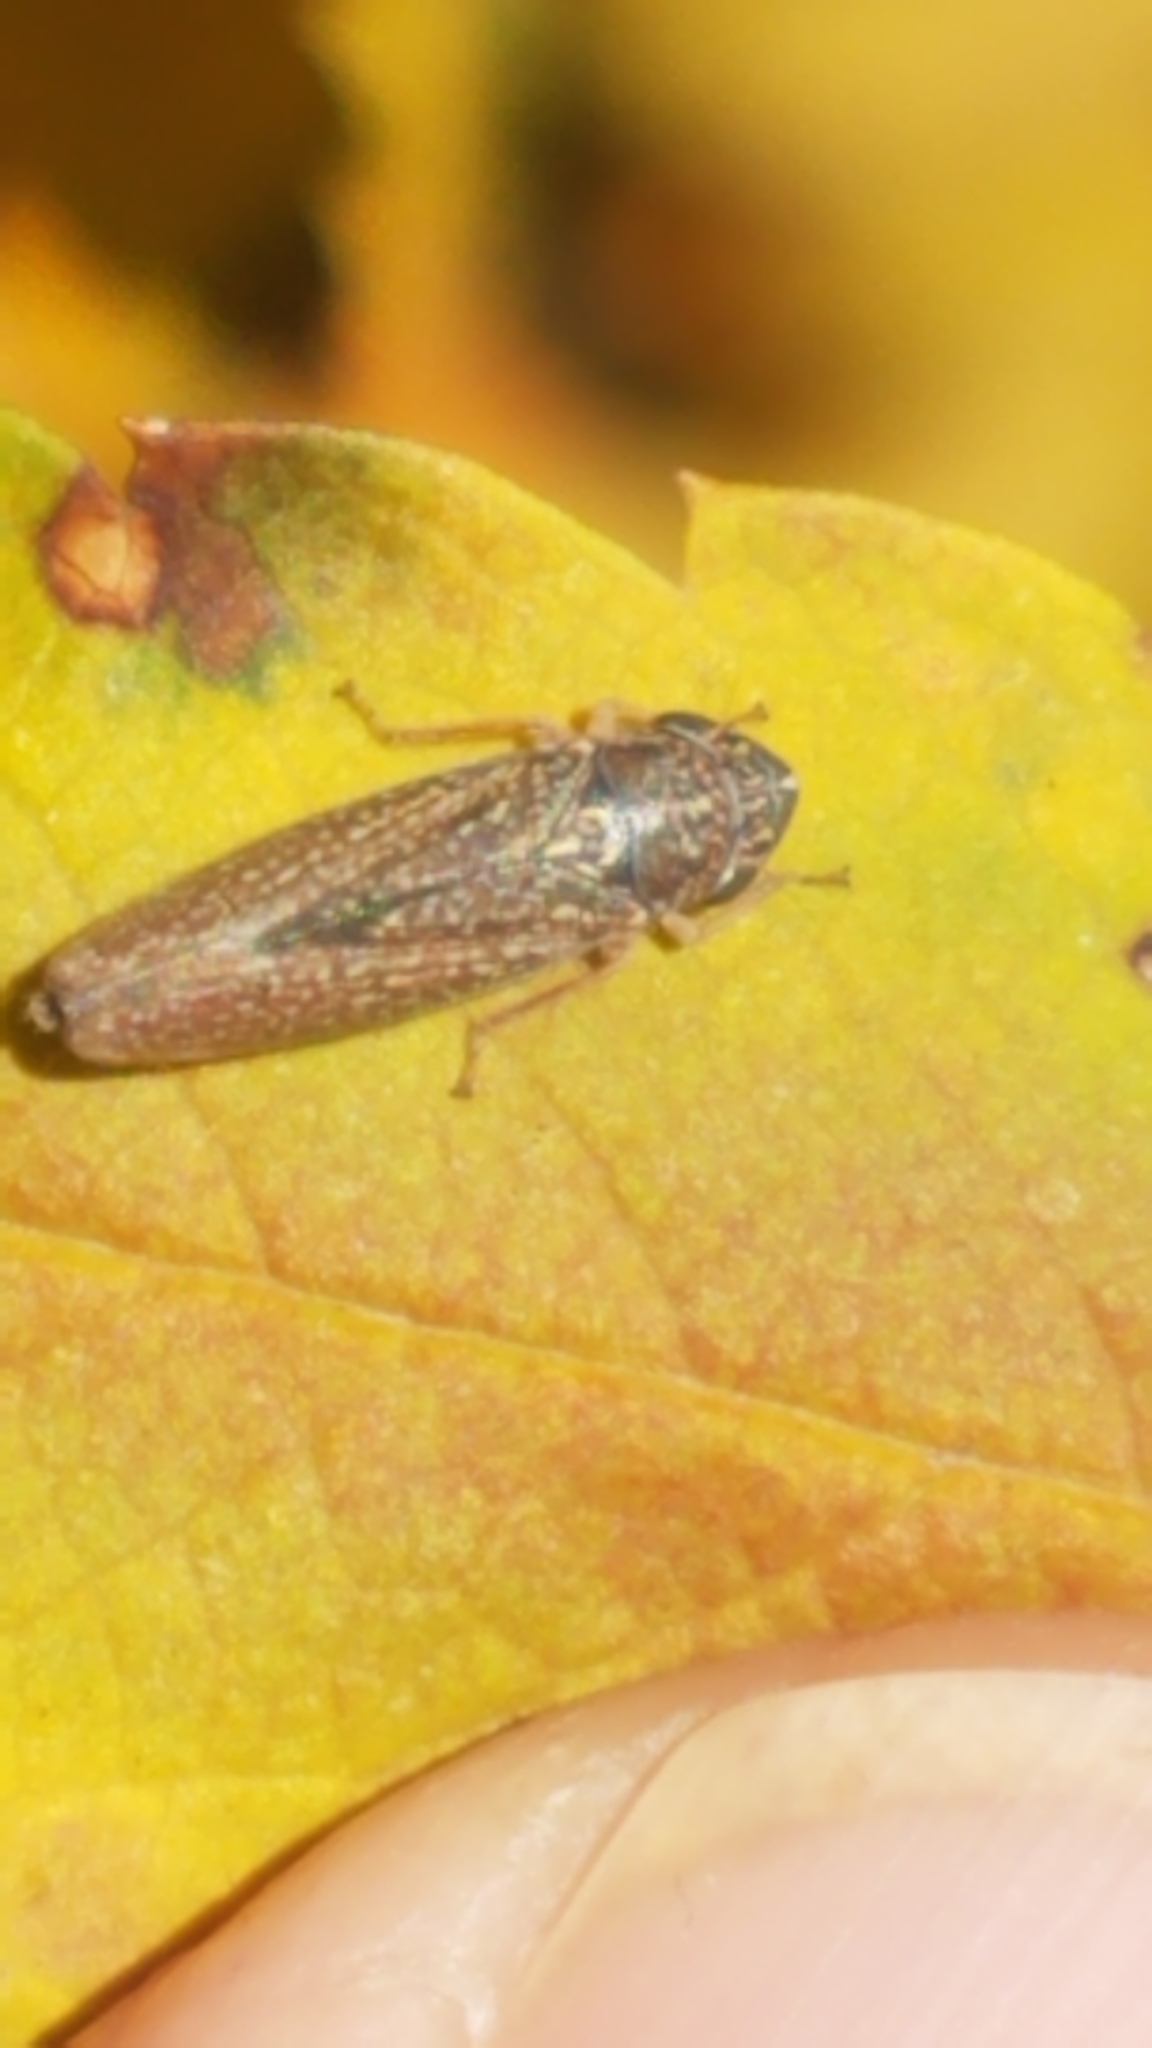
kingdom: Animalia
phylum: Arthropoda
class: Insecta
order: Hemiptera
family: Cicadellidae
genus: Graphocephala
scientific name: Graphocephala confluens
